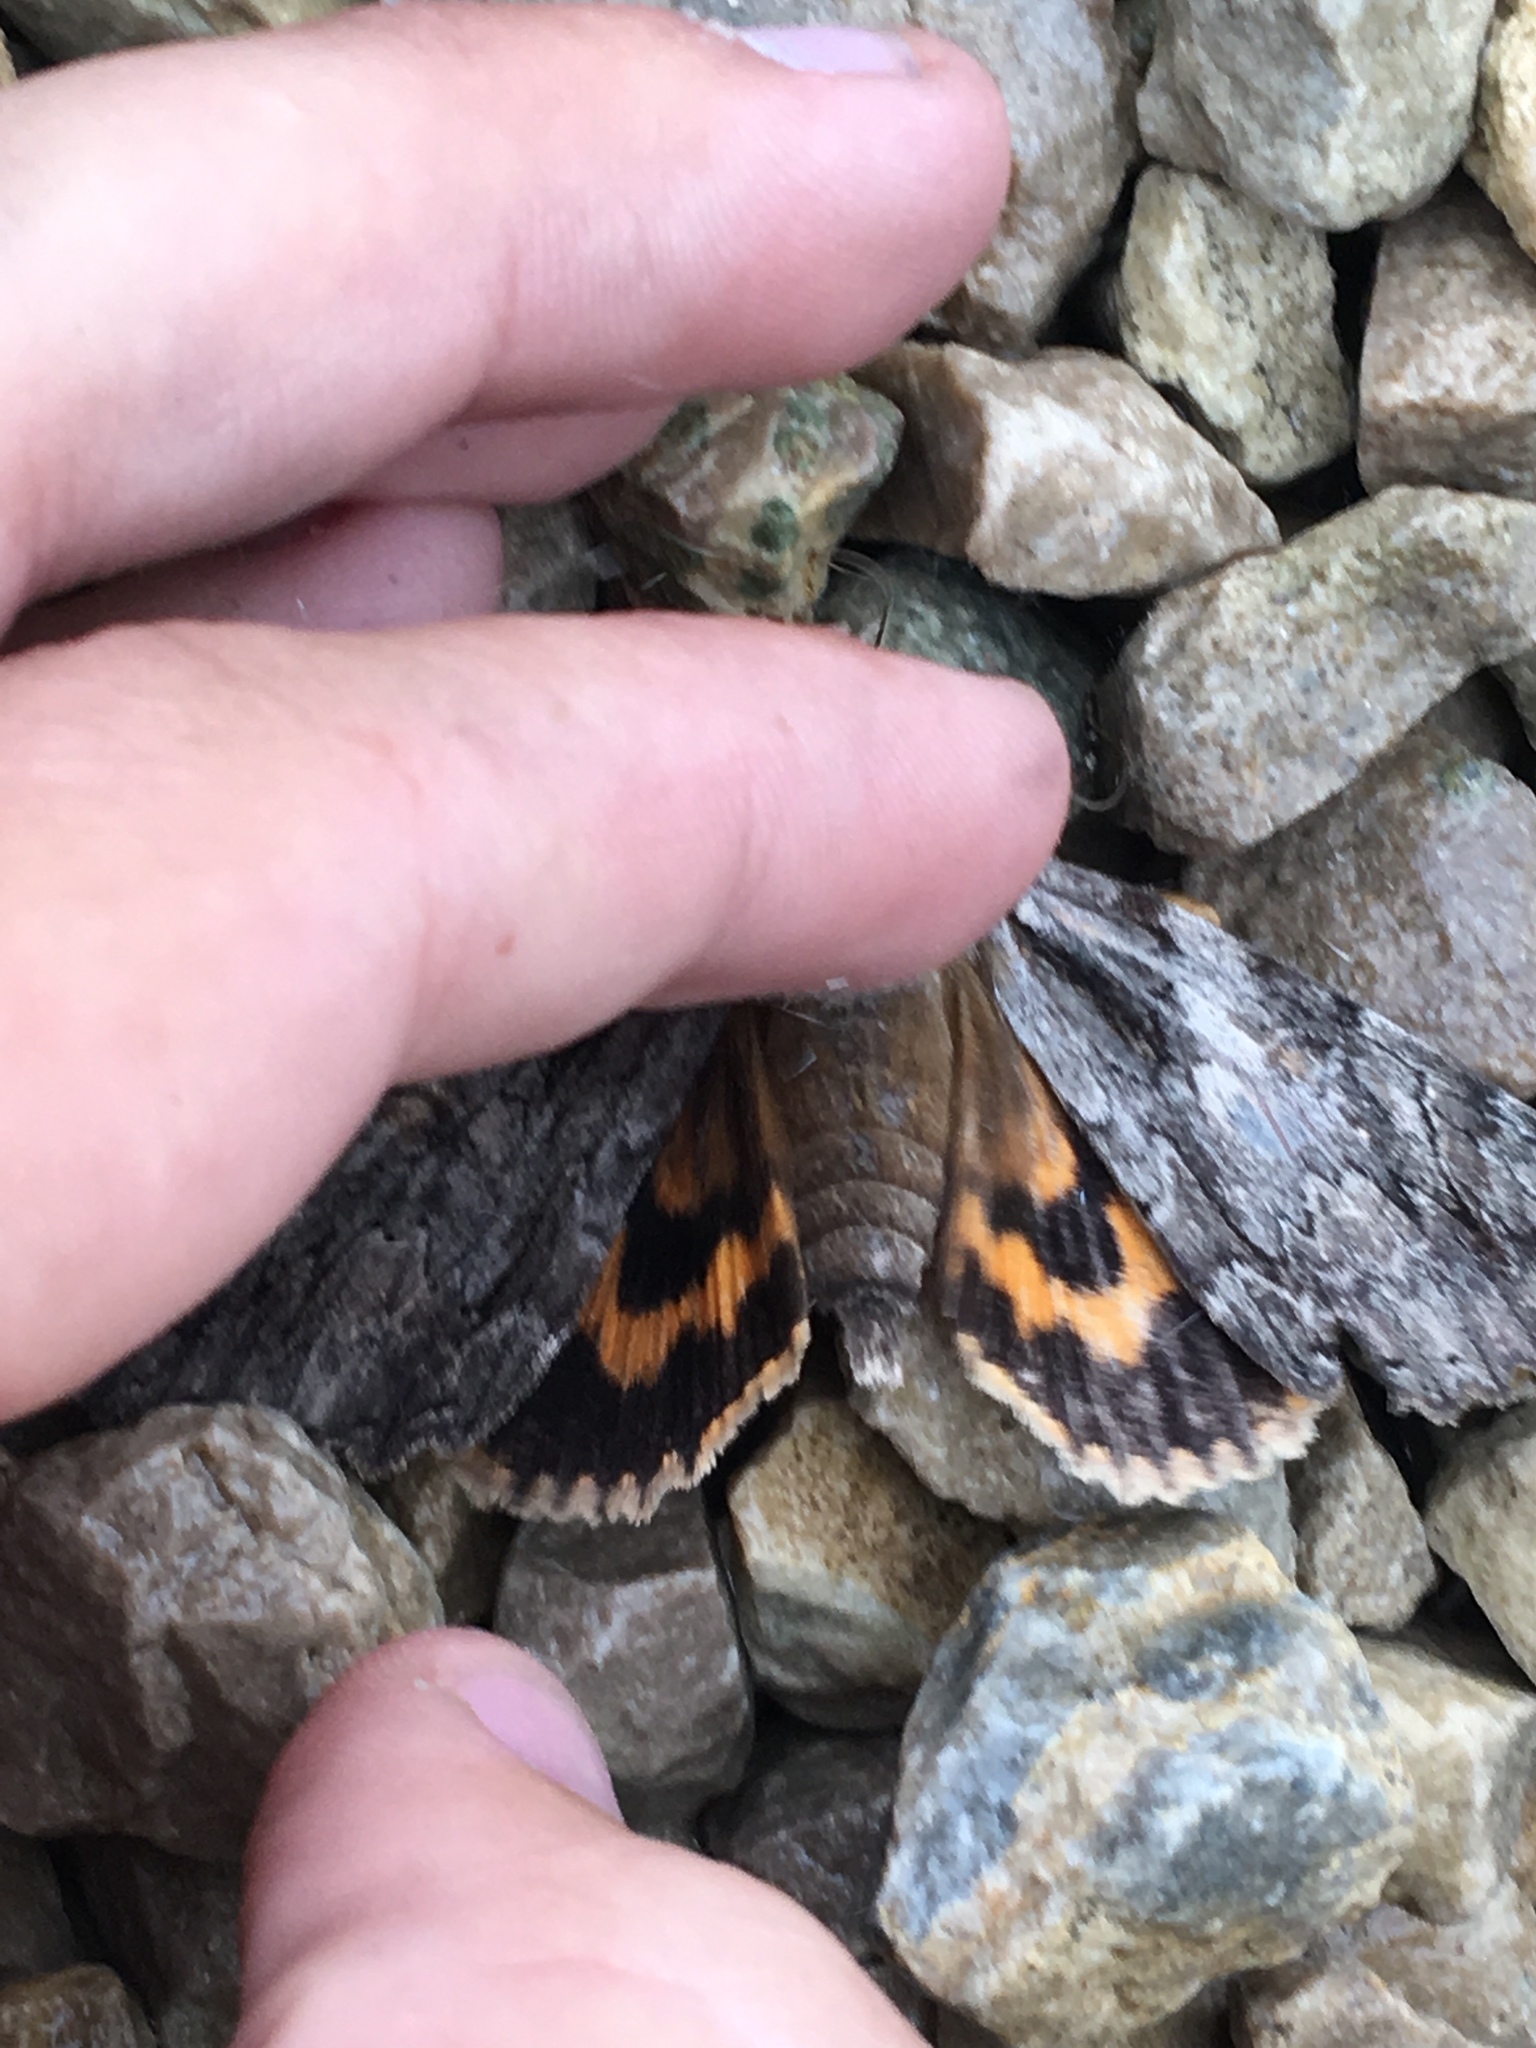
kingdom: Animalia
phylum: Arthropoda
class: Insecta
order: Lepidoptera
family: Erebidae
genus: Catocala
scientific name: Catocala neogama
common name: Bride underwing
